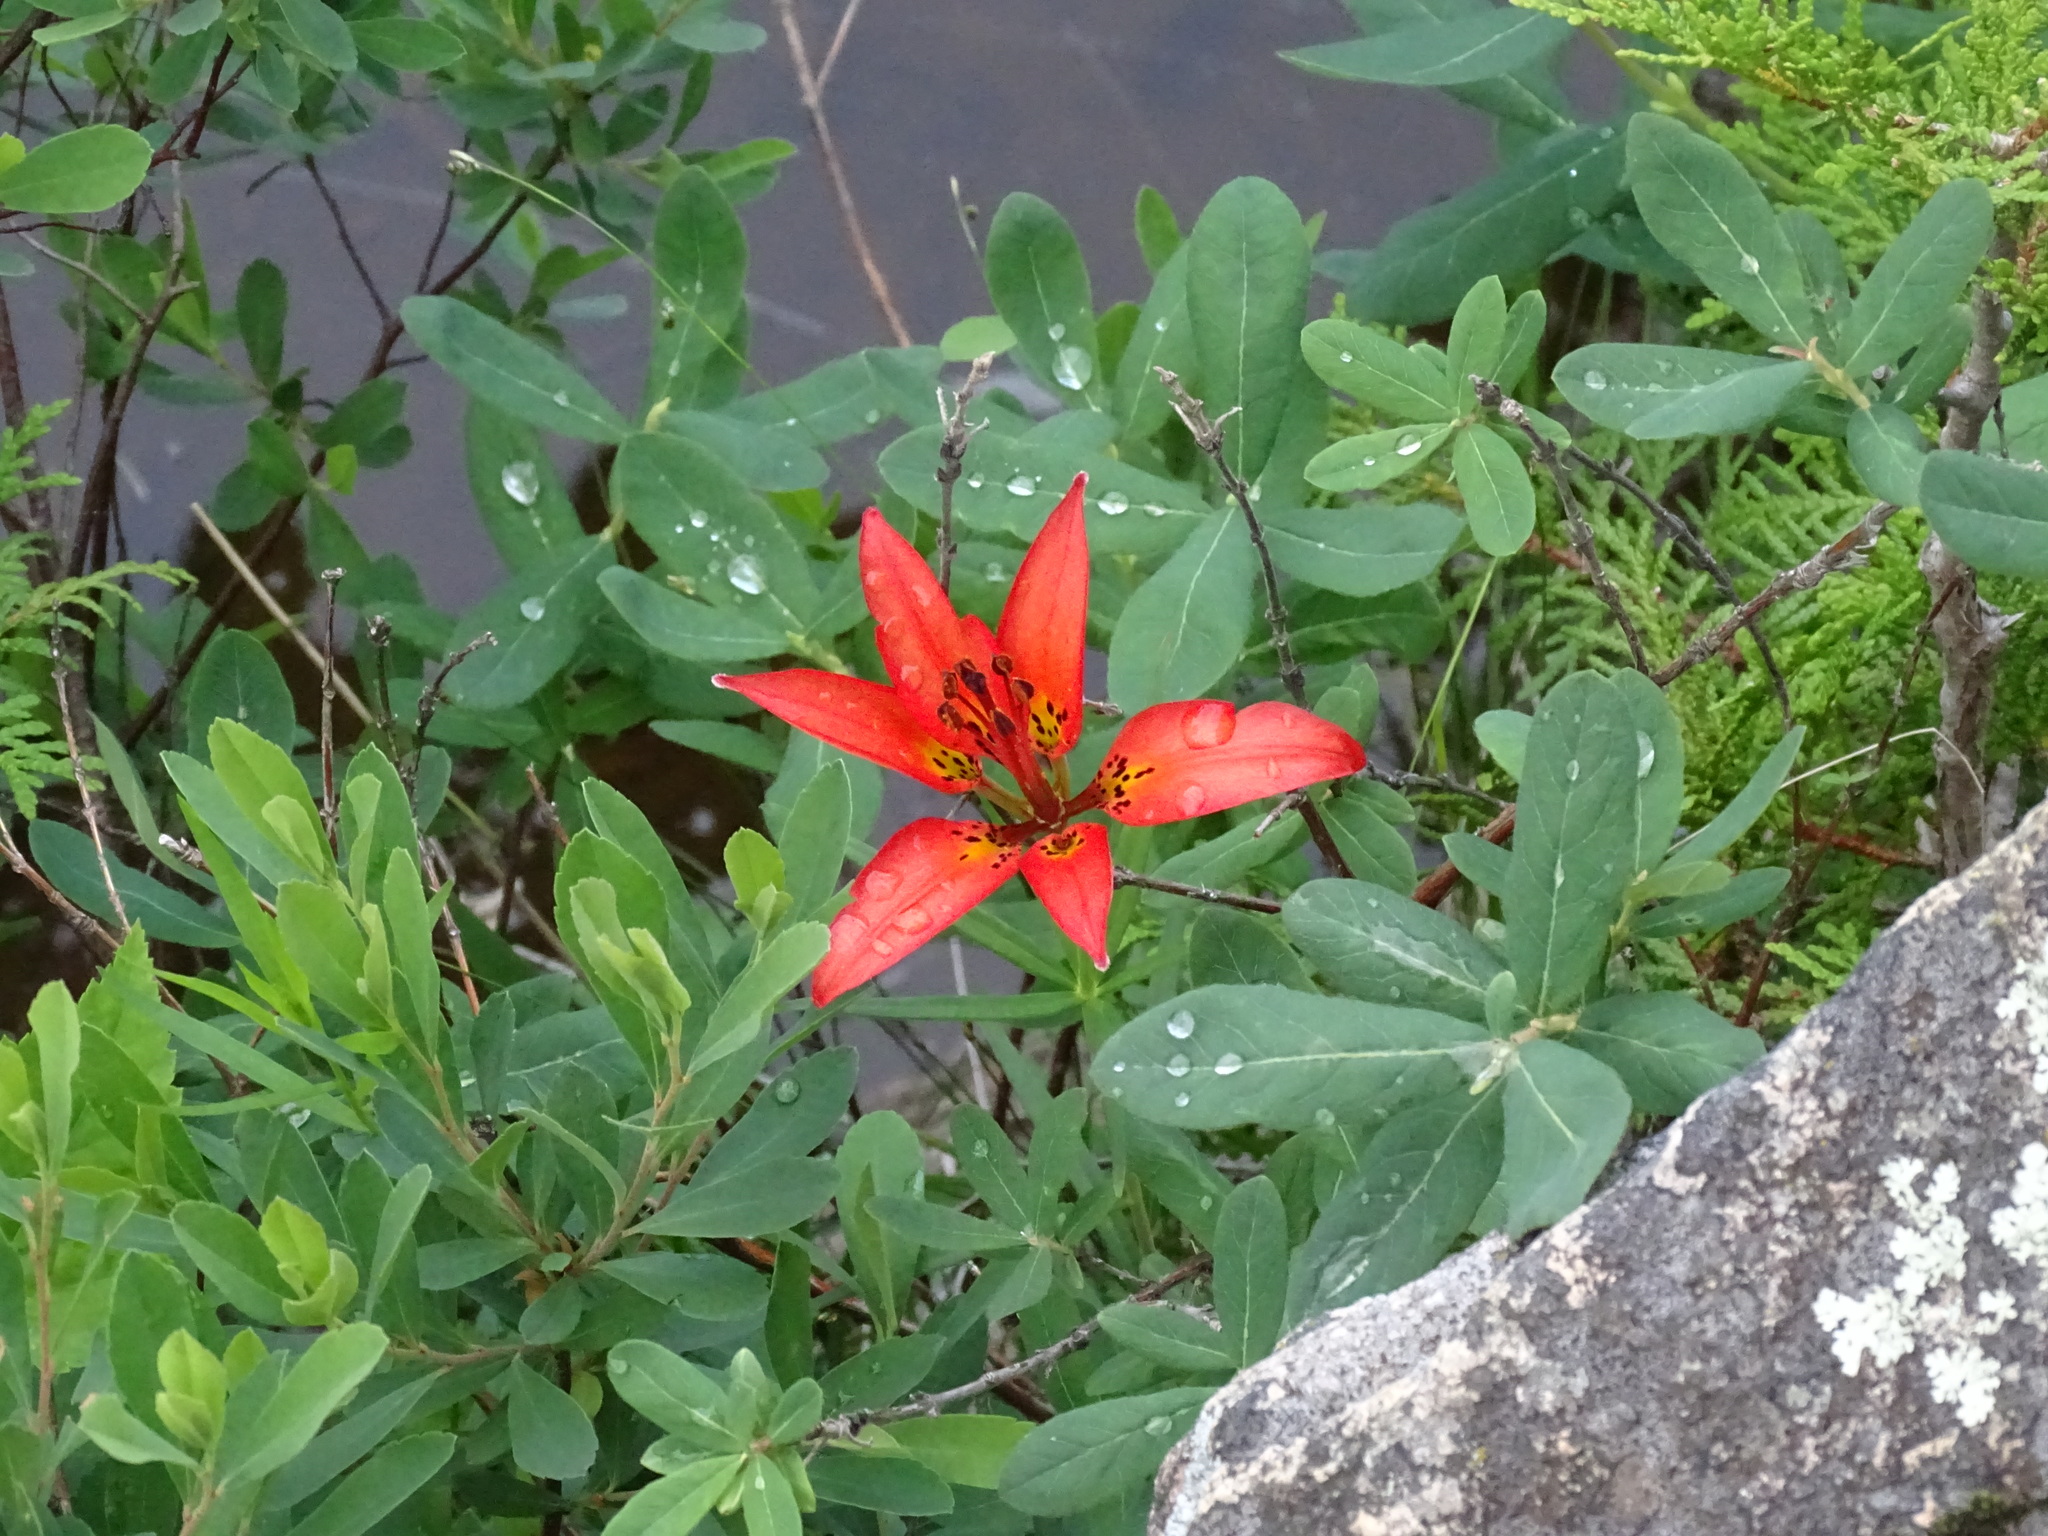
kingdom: Plantae
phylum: Tracheophyta
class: Liliopsida
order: Liliales
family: Liliaceae
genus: Lilium
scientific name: Lilium philadelphicum
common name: Red lily
